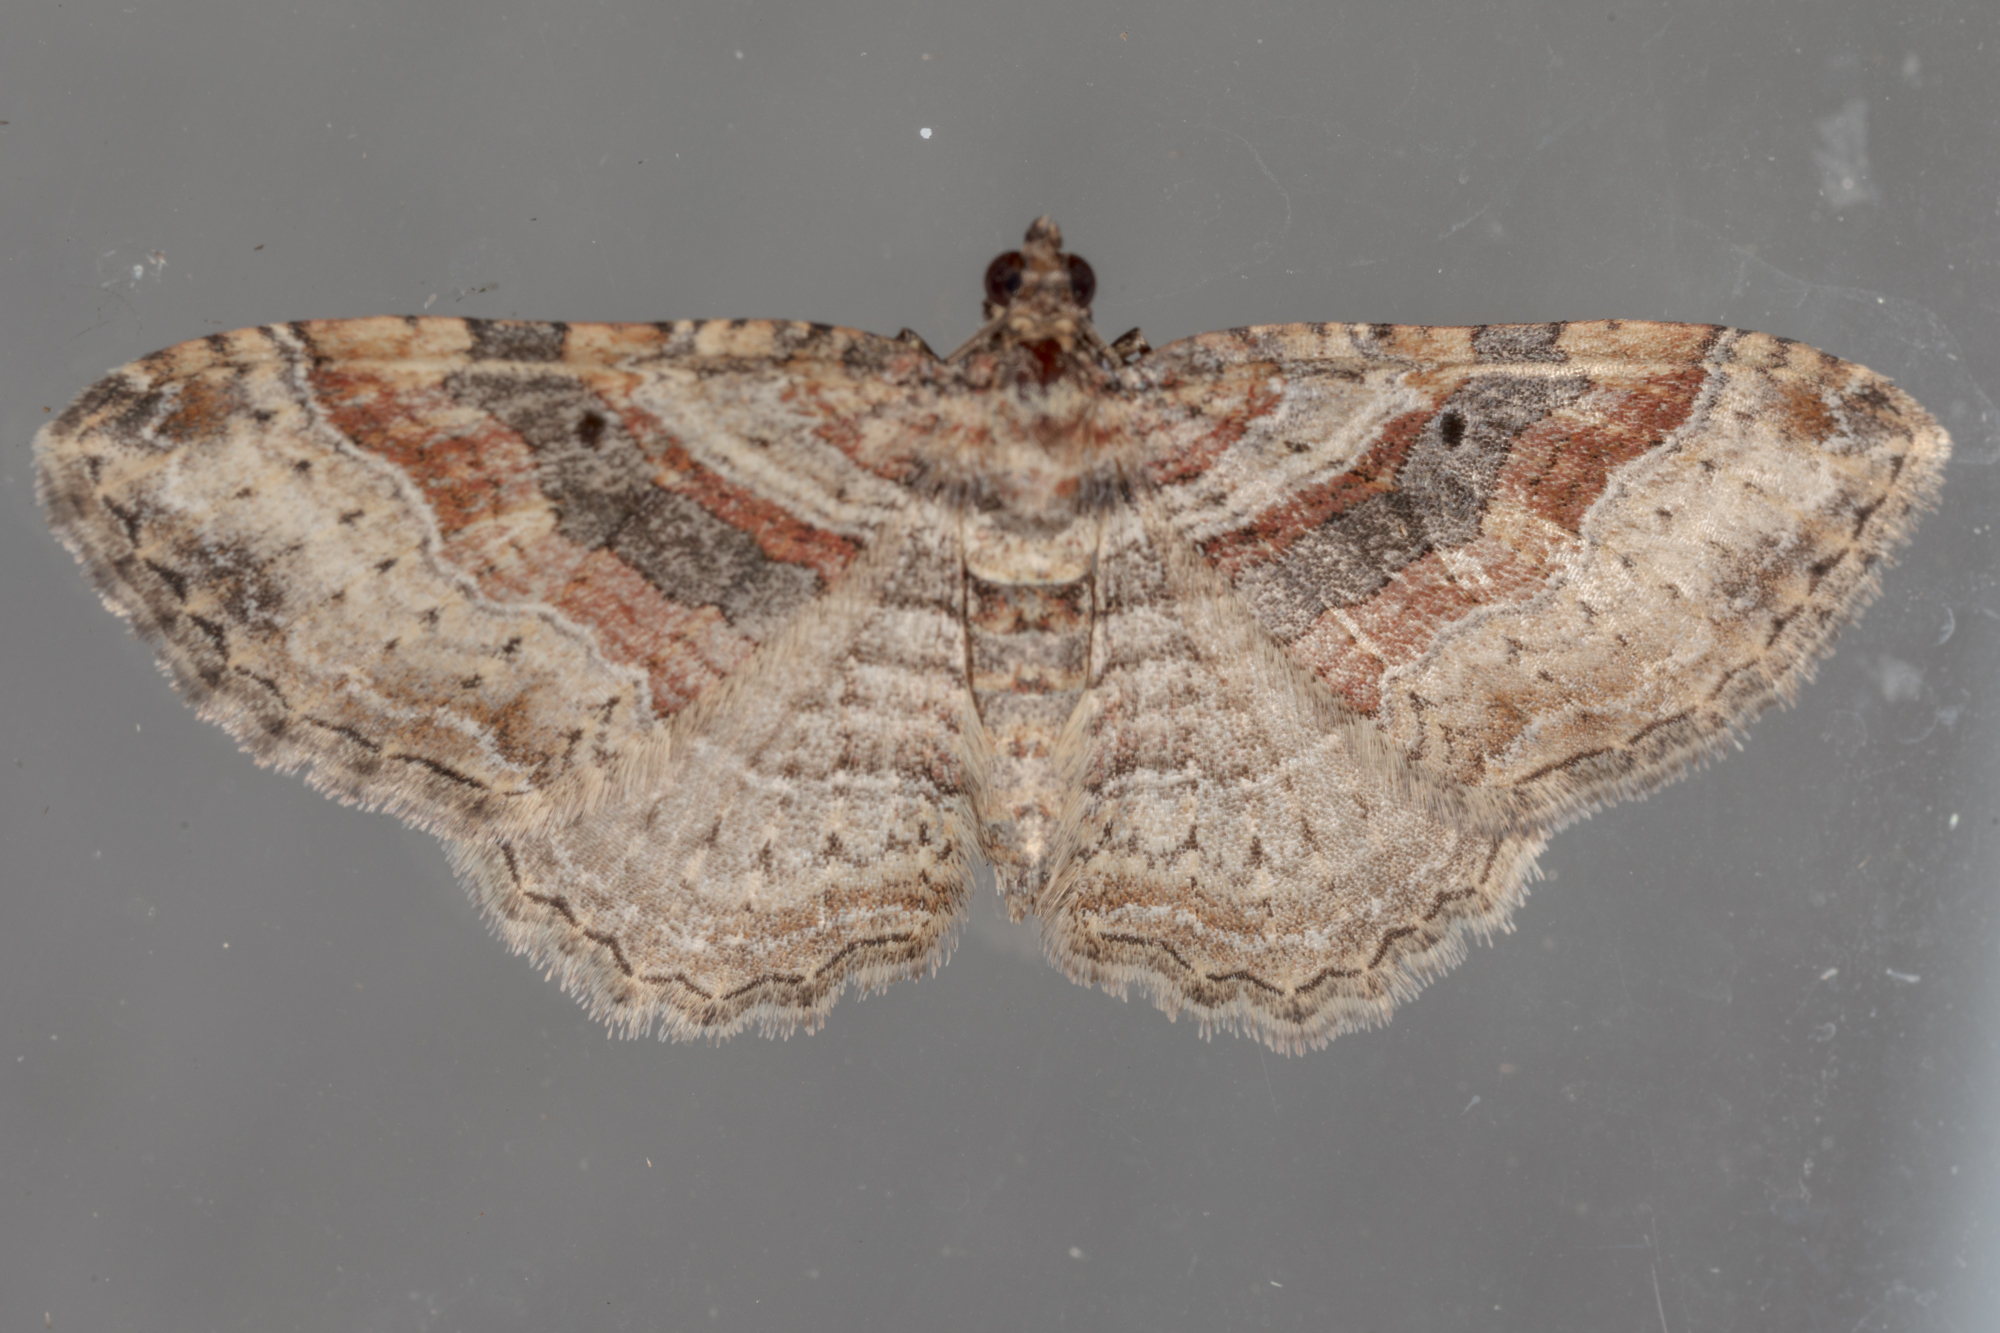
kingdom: Animalia
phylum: Arthropoda
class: Insecta
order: Lepidoptera
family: Geometridae
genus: Costaconvexa
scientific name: Costaconvexa centrostrigaria
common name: Bent-line carpet
